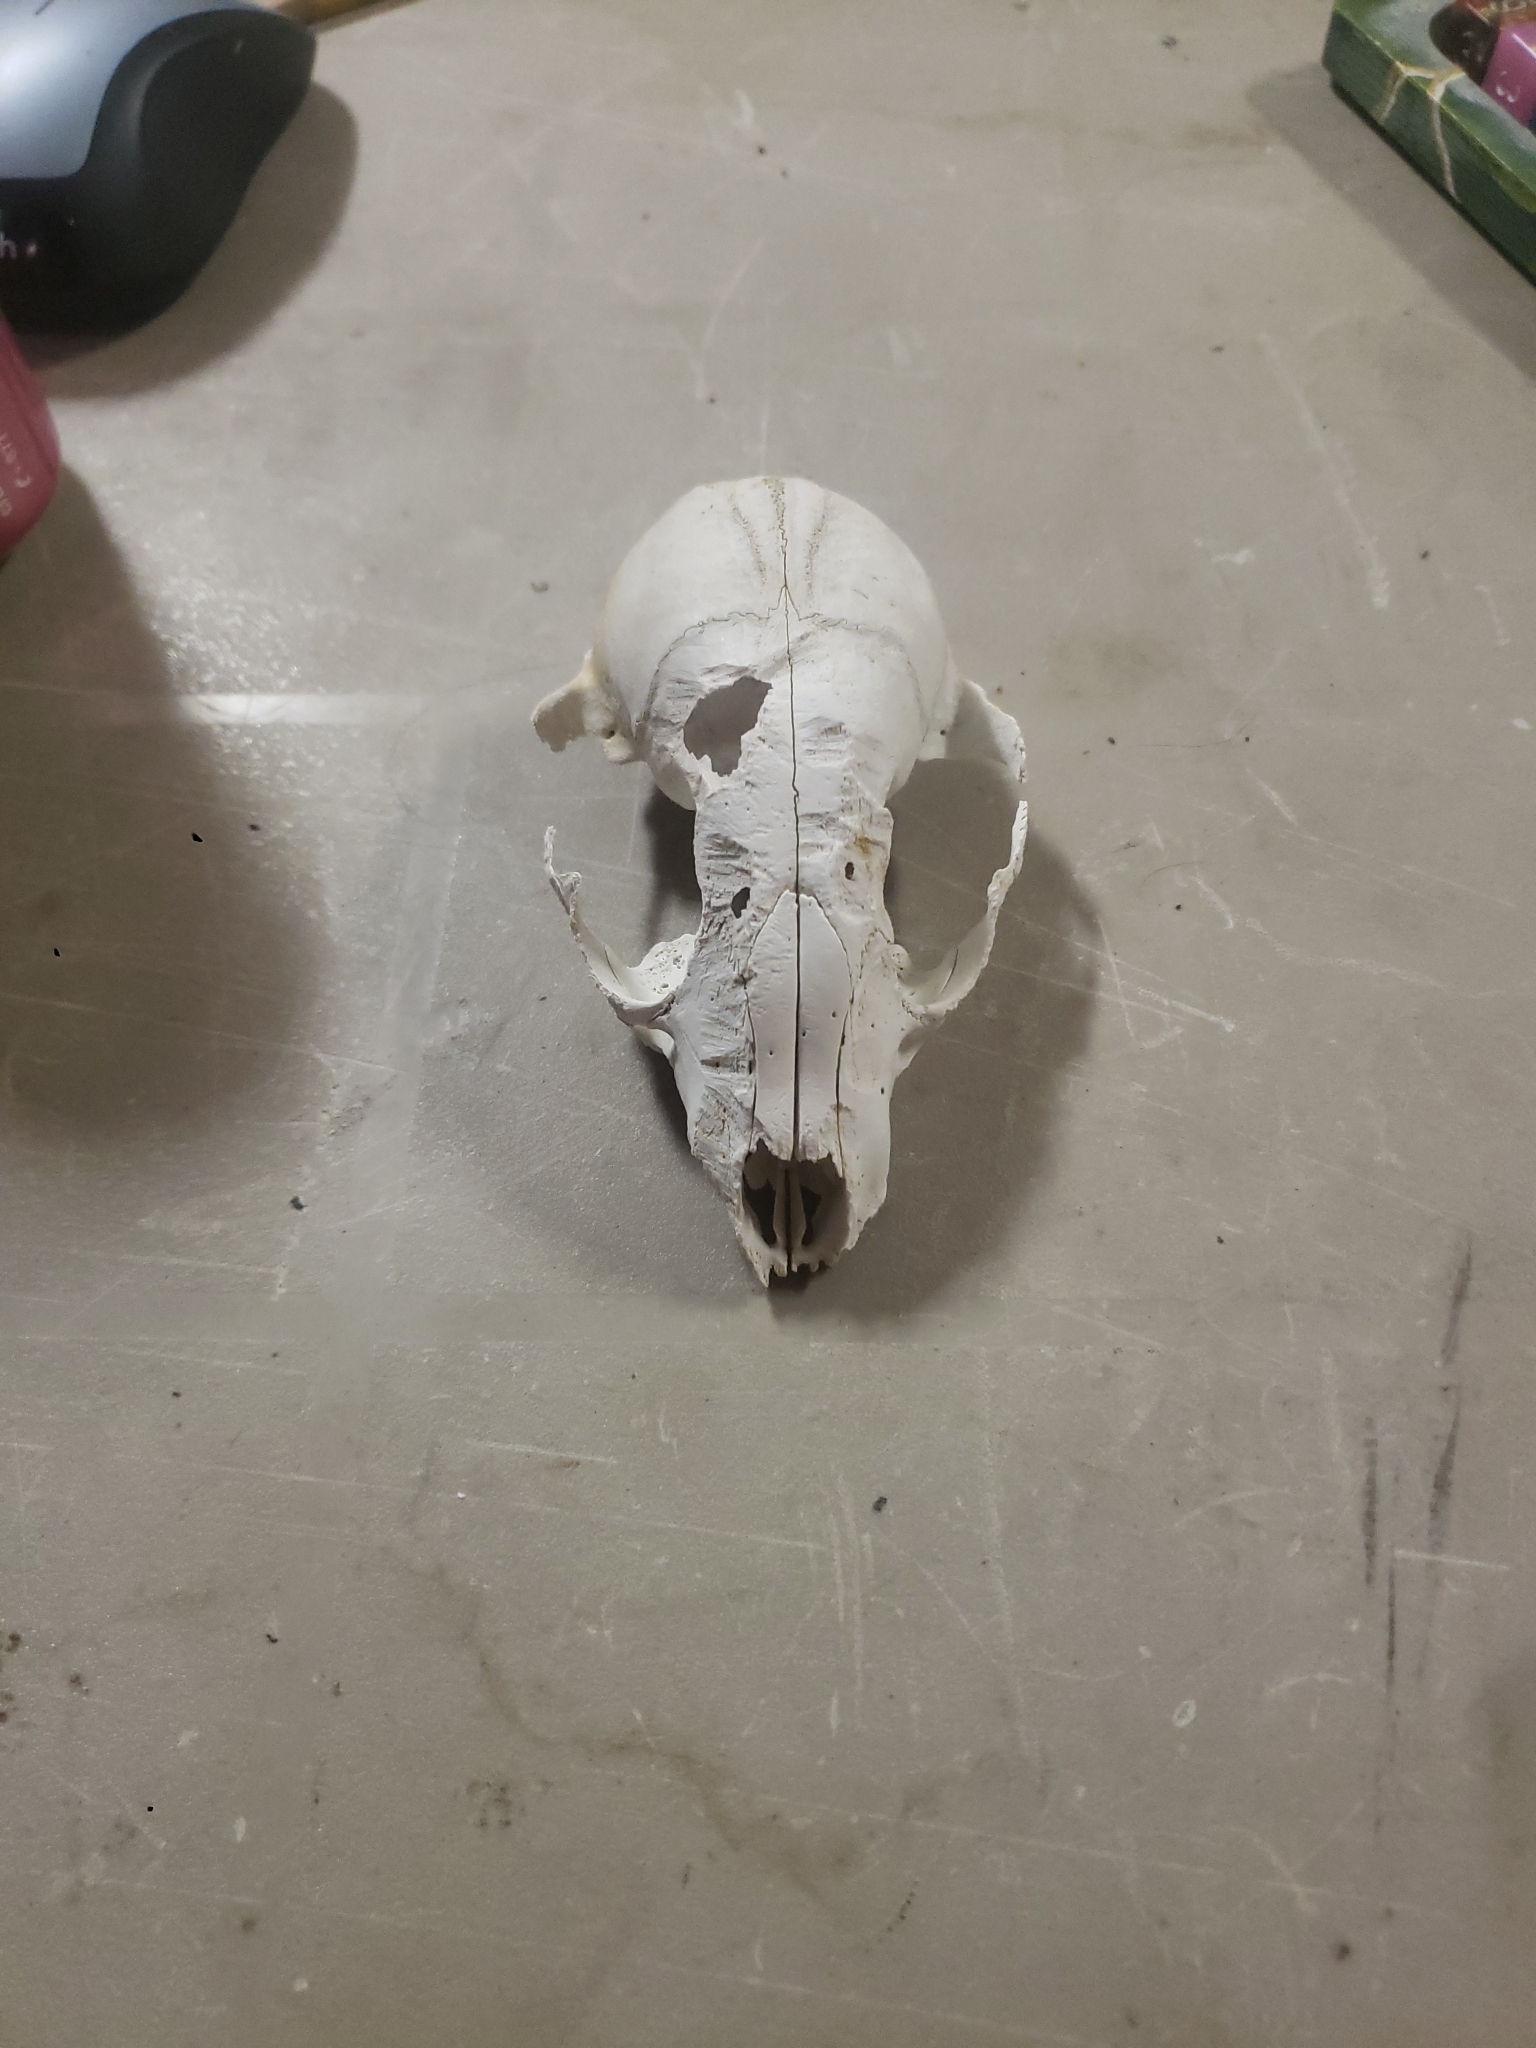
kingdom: Animalia
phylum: Chordata
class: Mammalia
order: Carnivora
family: Procyonidae
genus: Procyon
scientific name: Procyon lotor
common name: Raccoon
